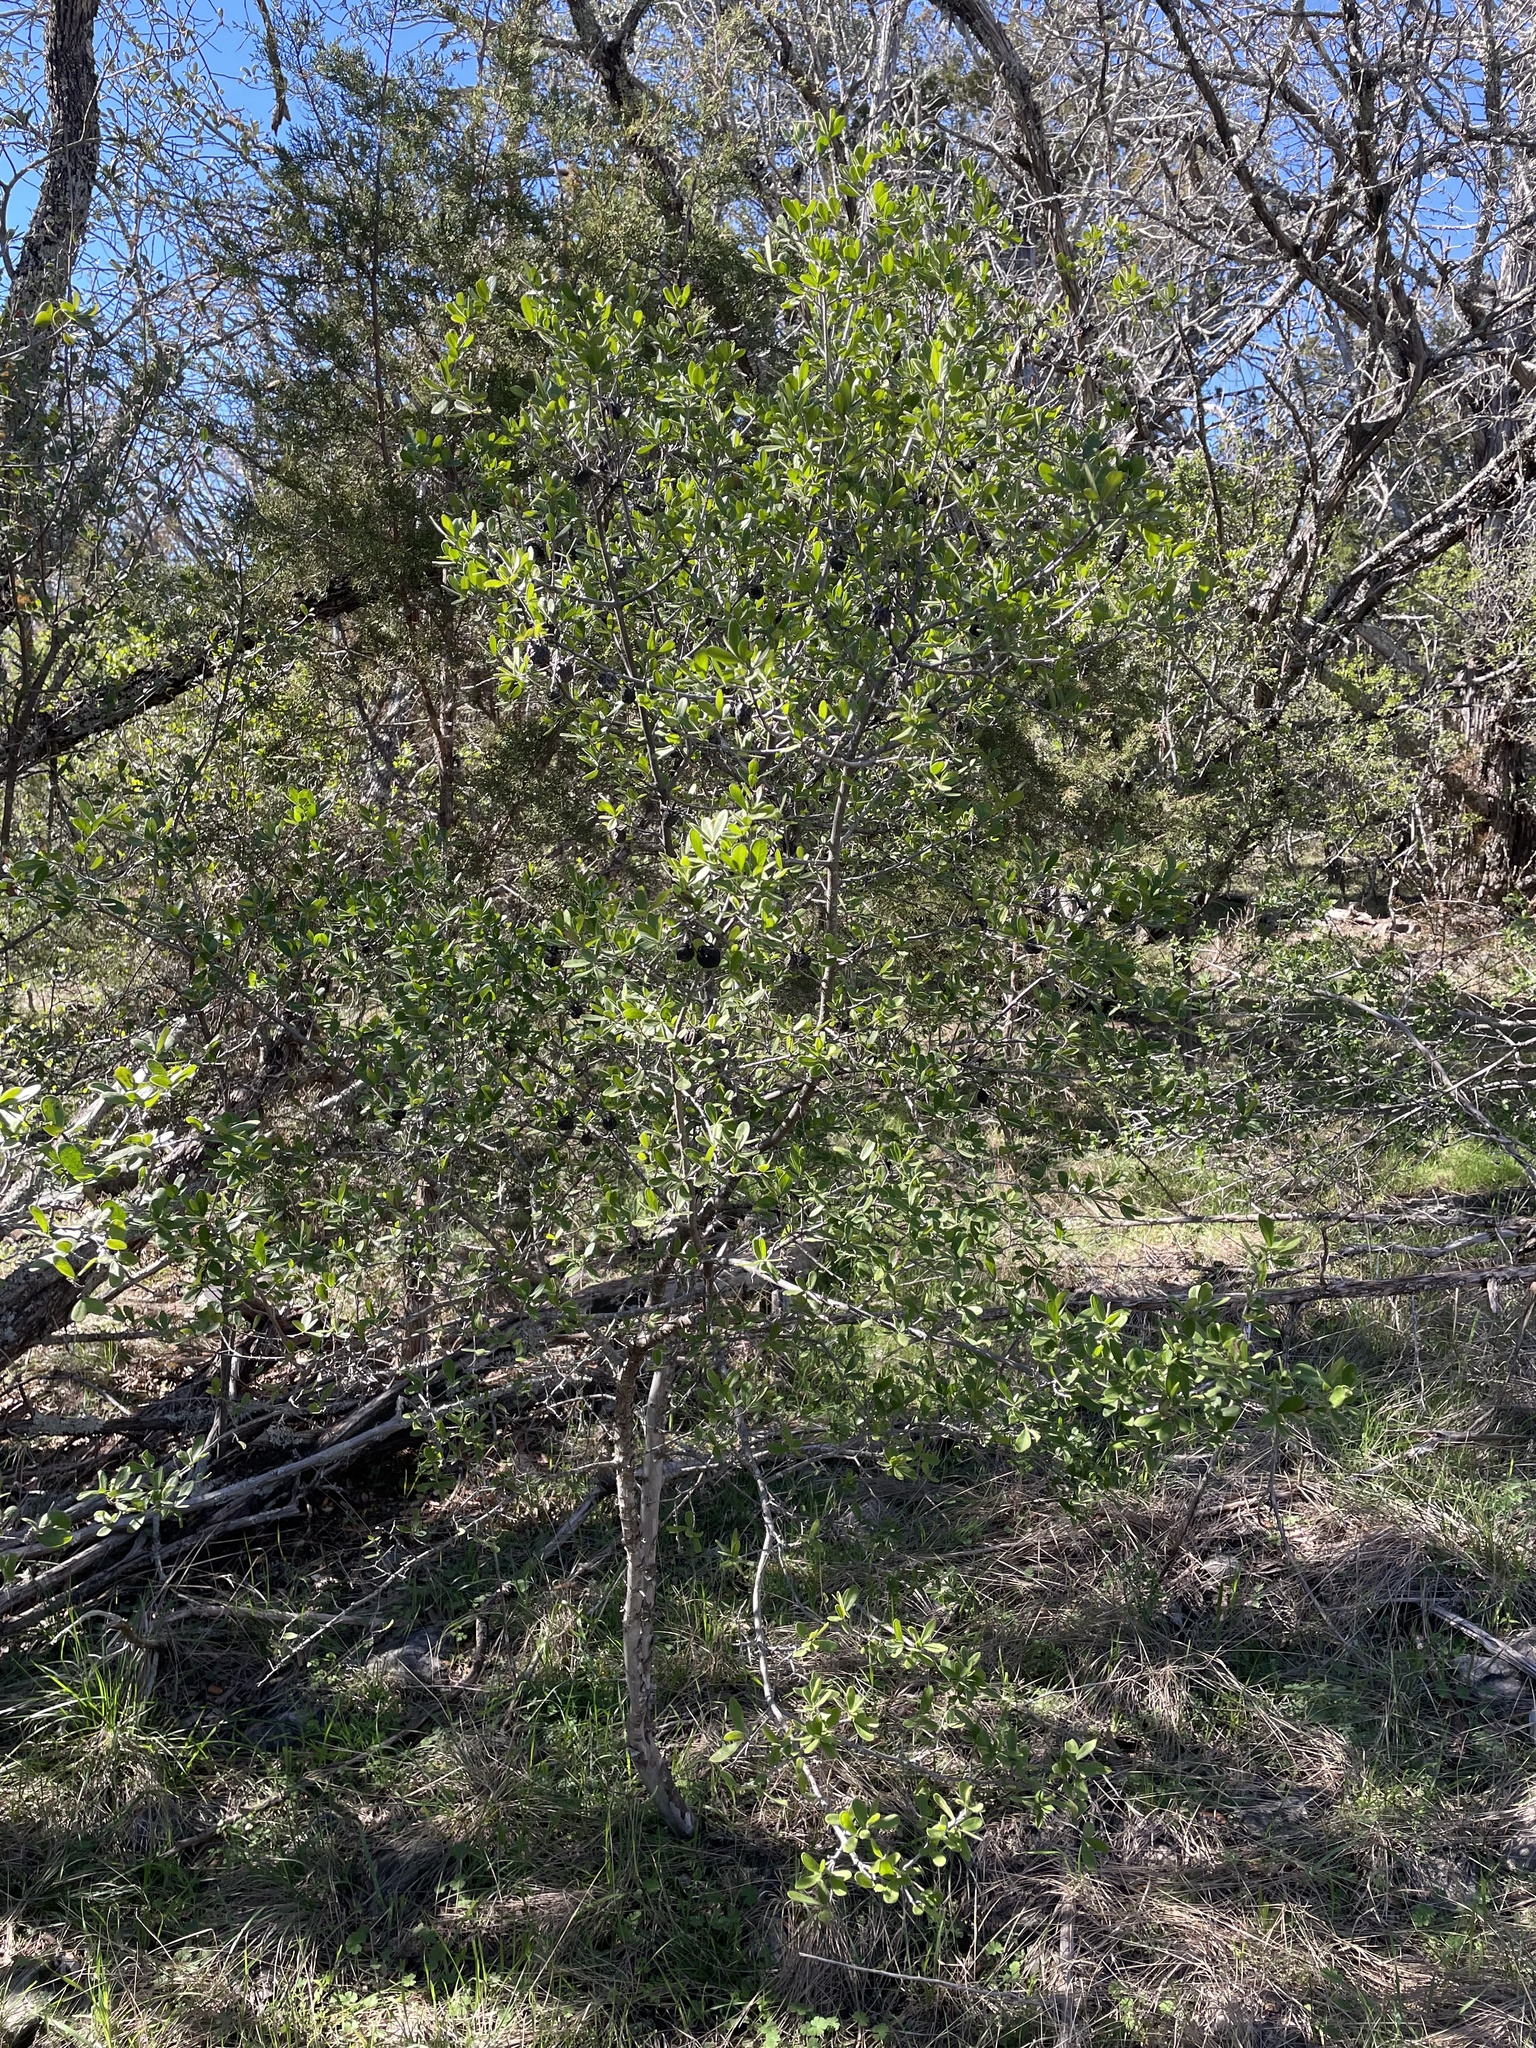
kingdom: Plantae
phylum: Tracheophyta
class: Magnoliopsida
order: Ericales
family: Ebenaceae
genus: Diospyros
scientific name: Diospyros texana
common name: Texas persimmon
